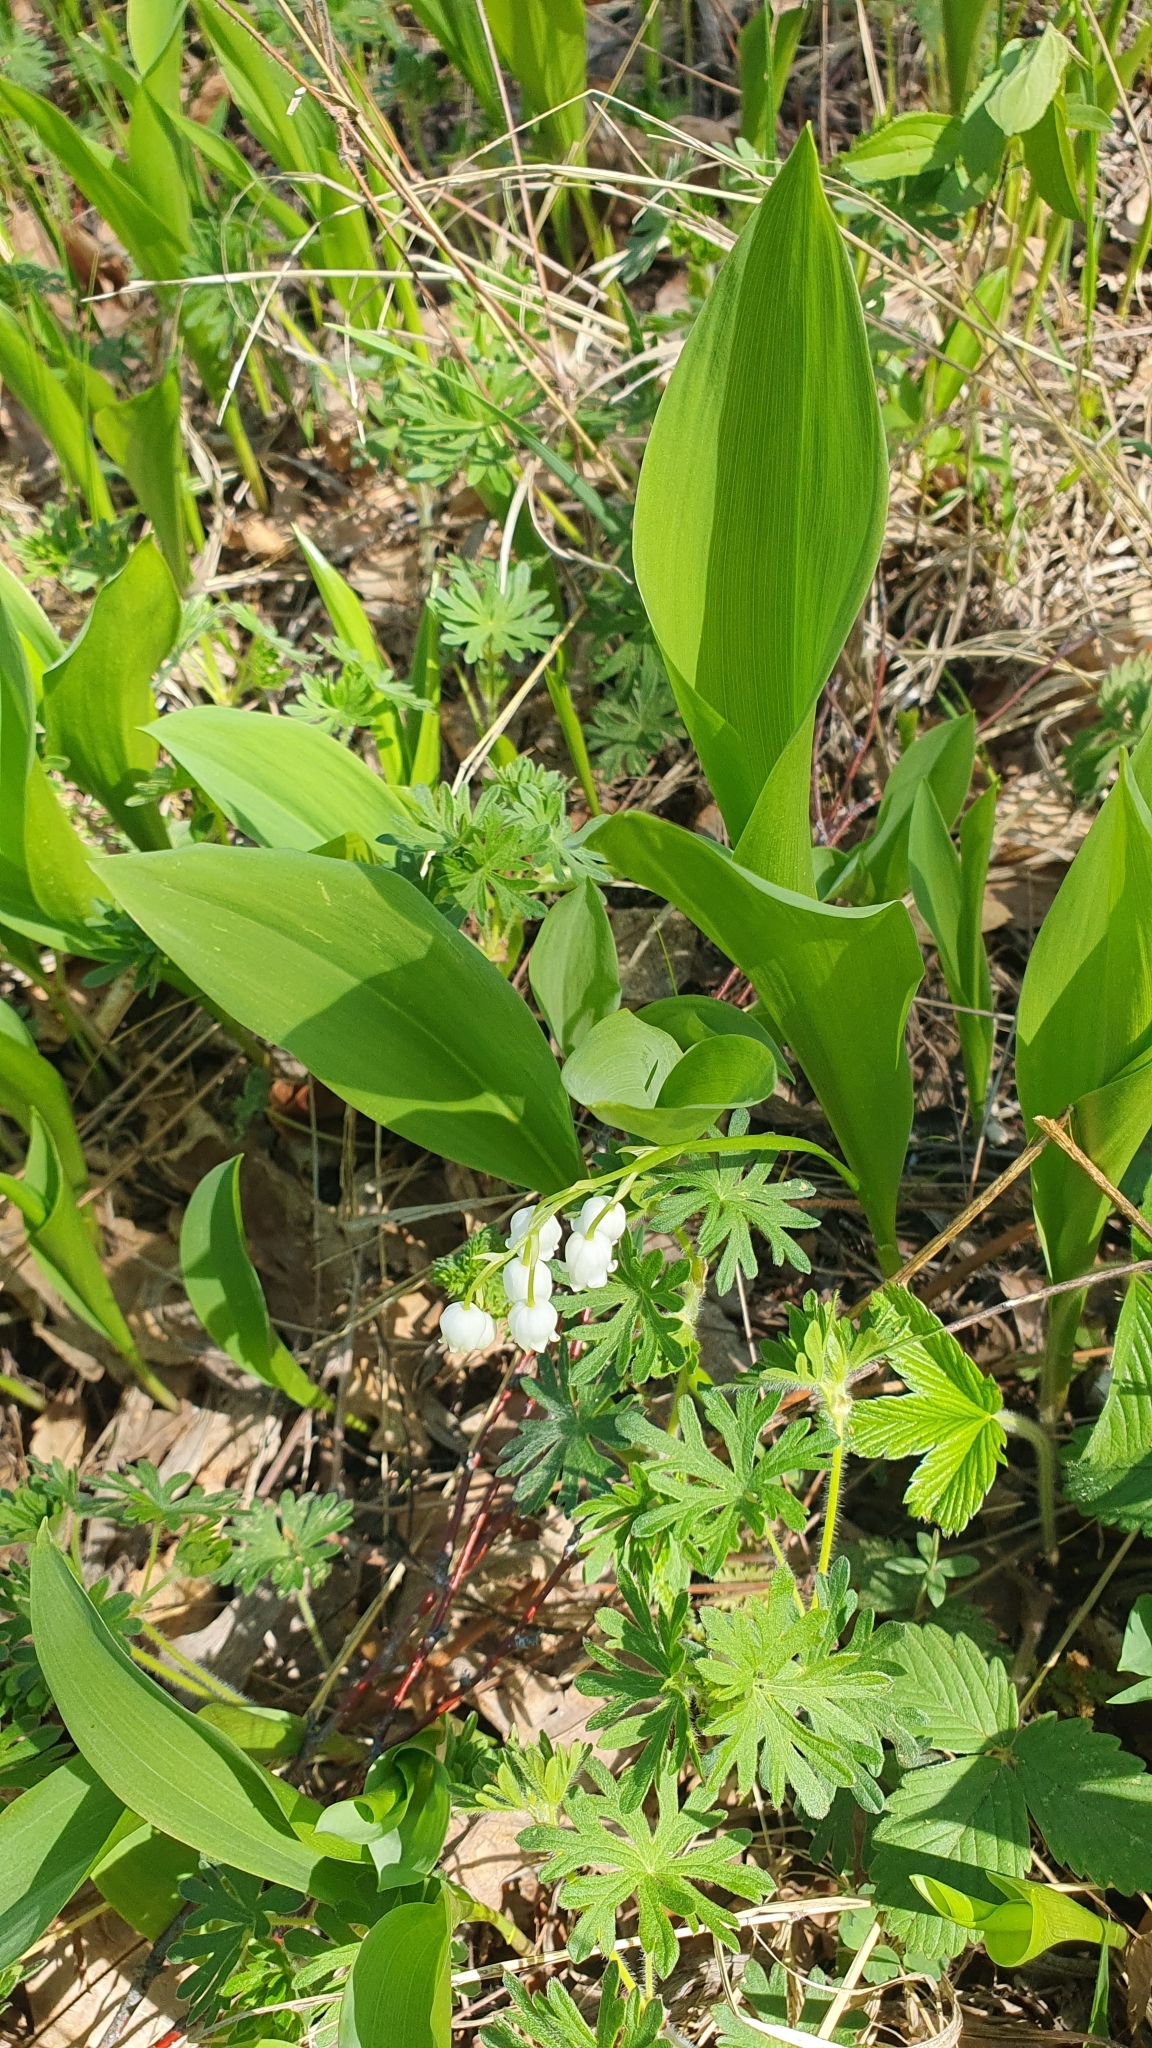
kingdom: Plantae
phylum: Tracheophyta
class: Liliopsida
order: Asparagales
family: Asparagaceae
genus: Convallaria
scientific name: Convallaria majalis
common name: Lily-of-the-valley
